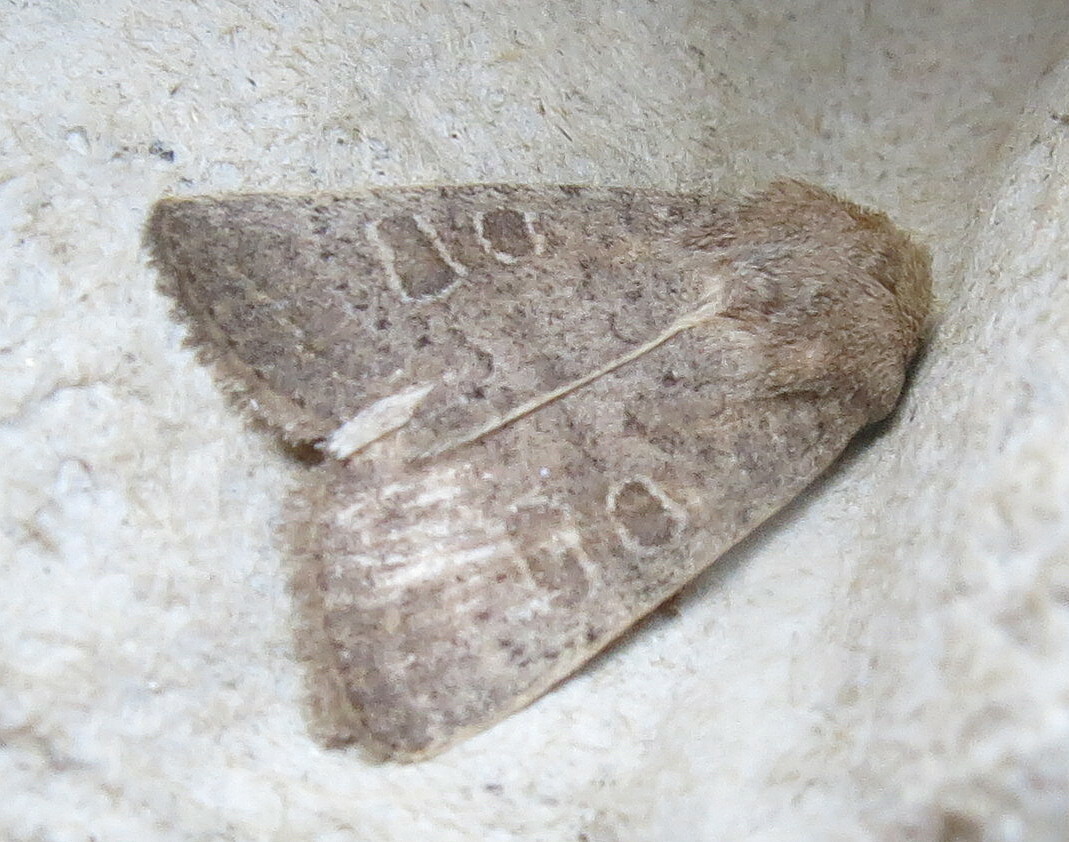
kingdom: Animalia
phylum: Arthropoda
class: Insecta
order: Lepidoptera
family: Noctuidae
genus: Hoplodrina
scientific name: Hoplodrina ambigua
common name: Vine's rustic
